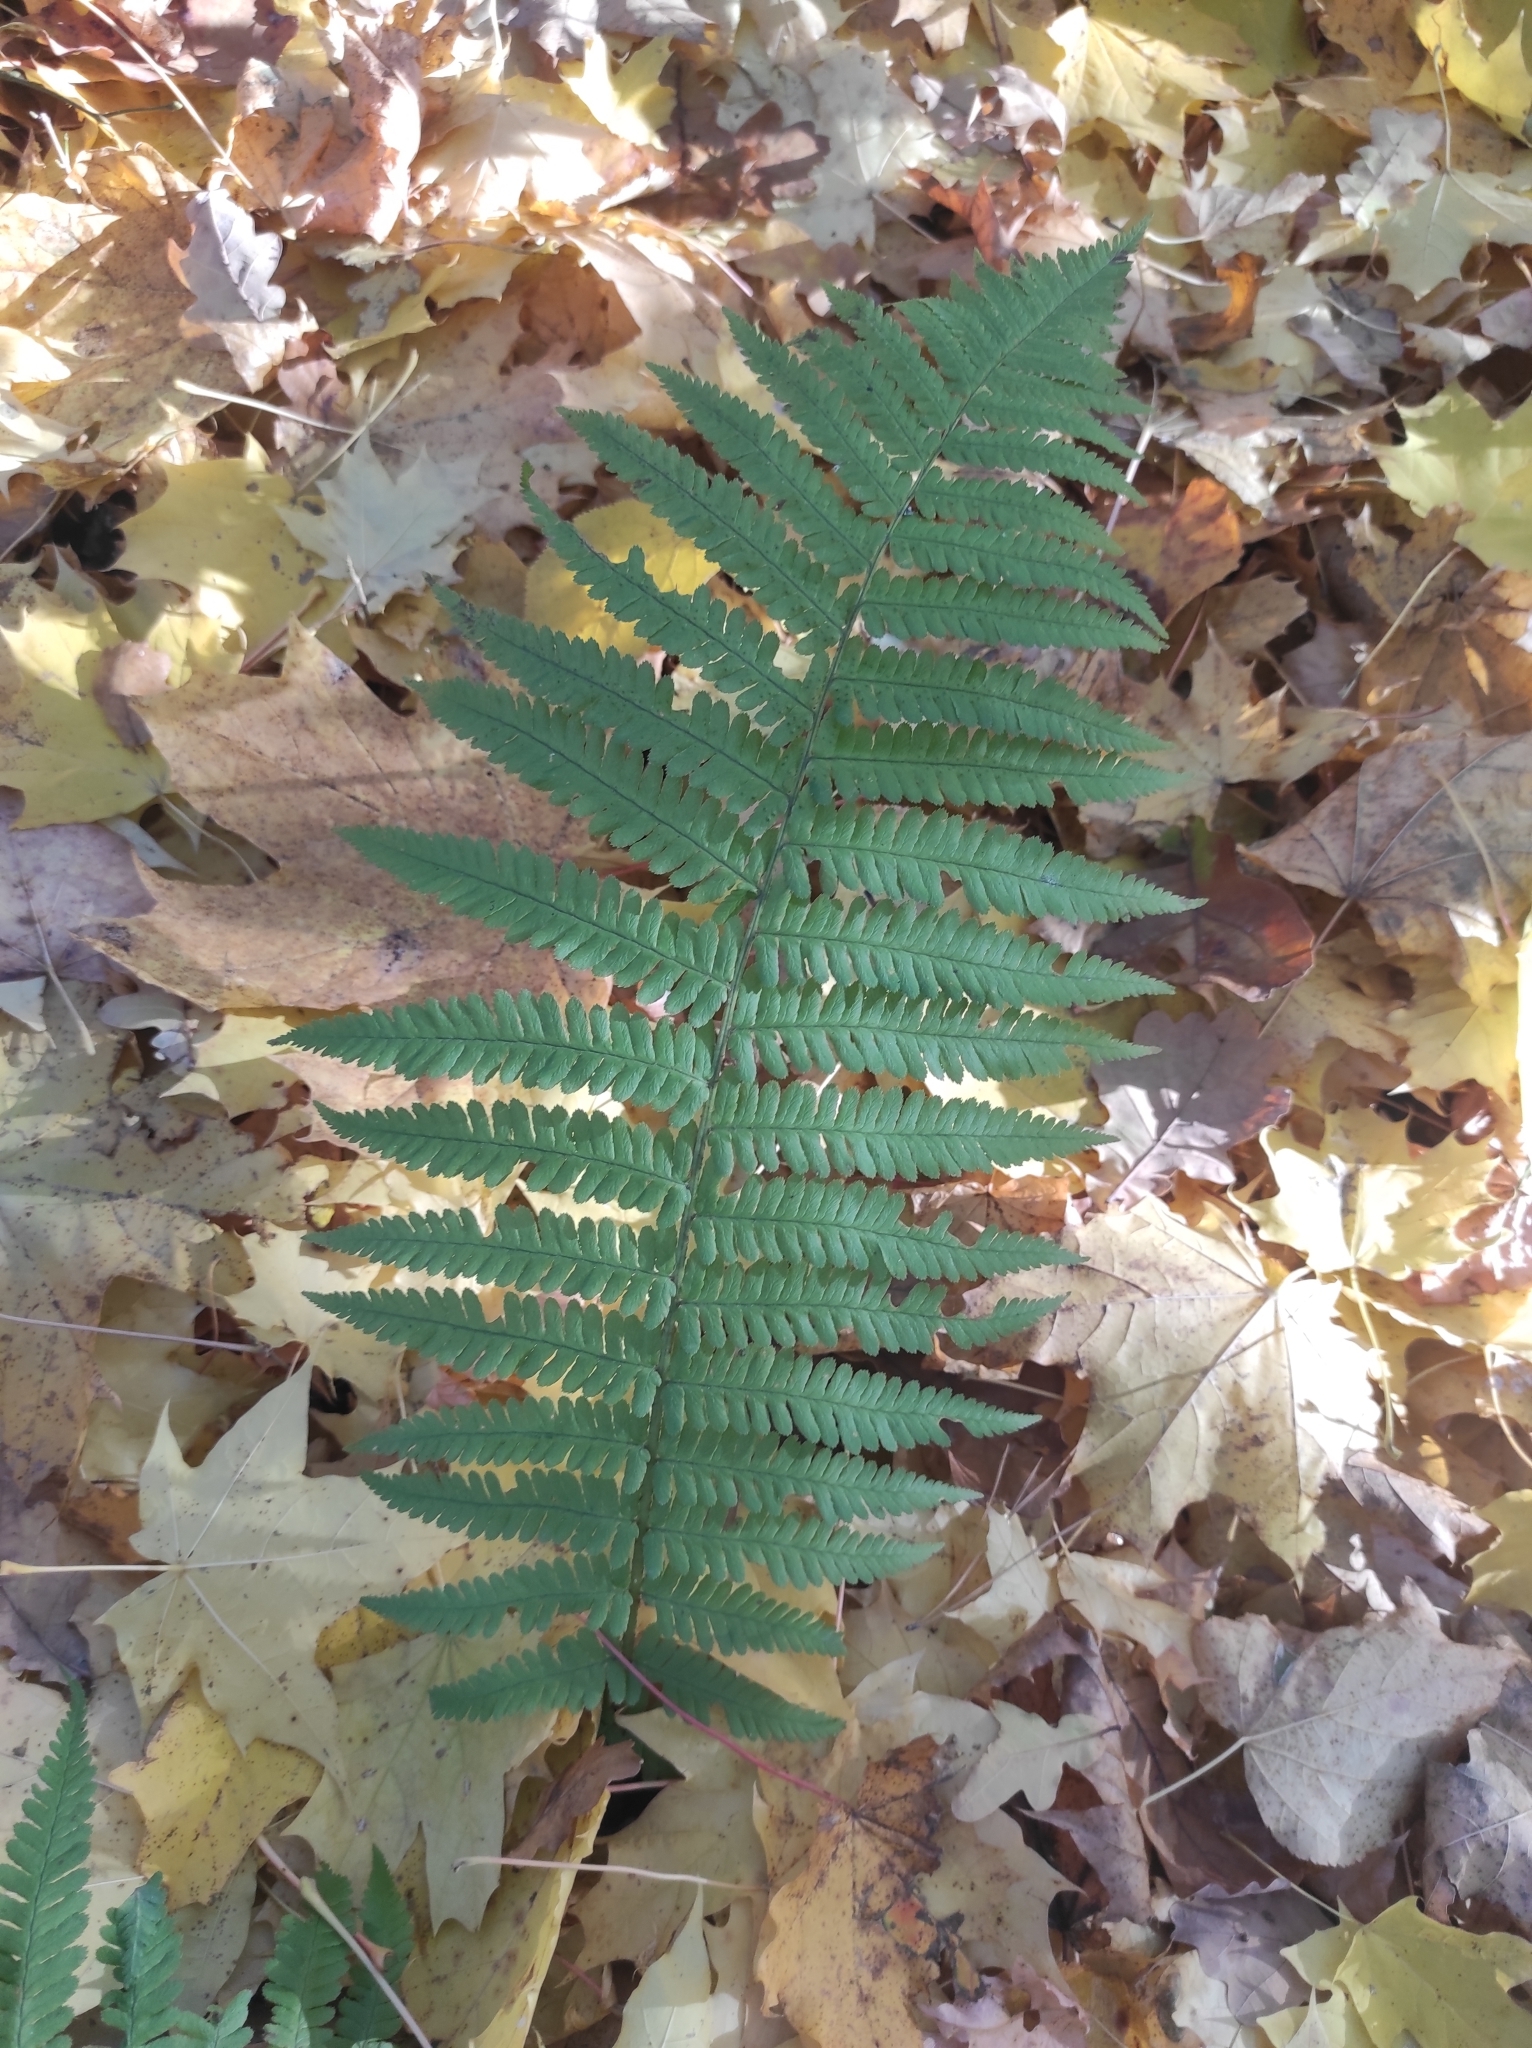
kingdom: Plantae
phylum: Tracheophyta
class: Polypodiopsida
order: Polypodiales
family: Dryopteridaceae
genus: Dryopteris
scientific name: Dryopteris filix-mas
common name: Male fern
